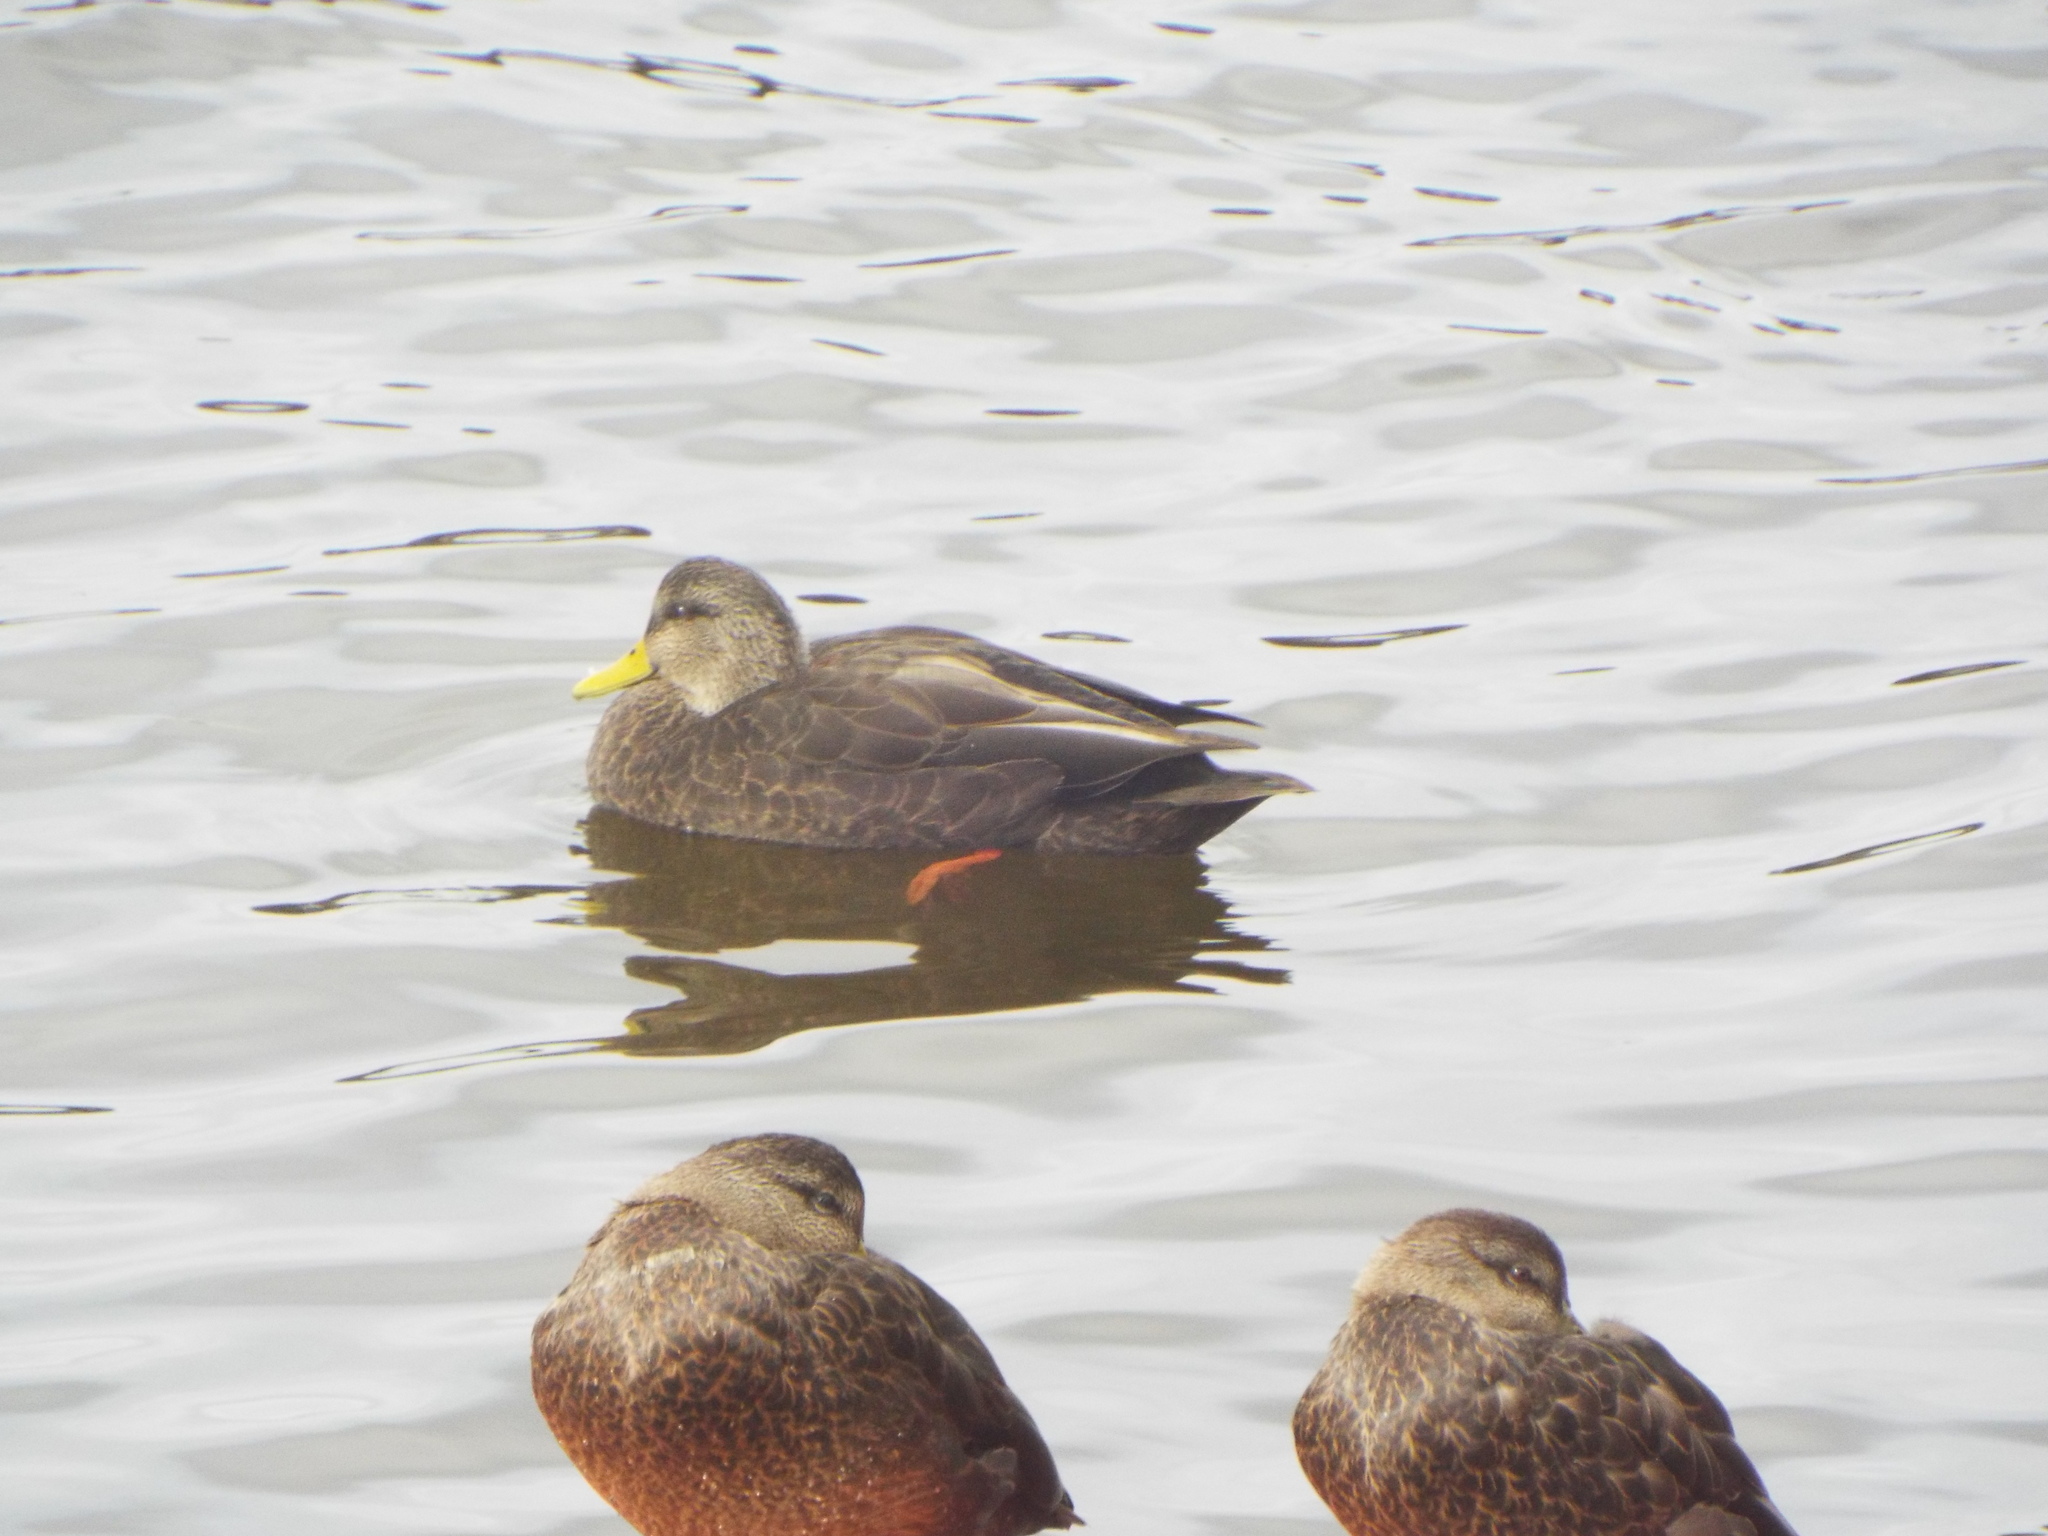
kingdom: Animalia
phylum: Chordata
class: Aves
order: Anseriformes
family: Anatidae
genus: Anas
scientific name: Anas rubripes
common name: American black duck
